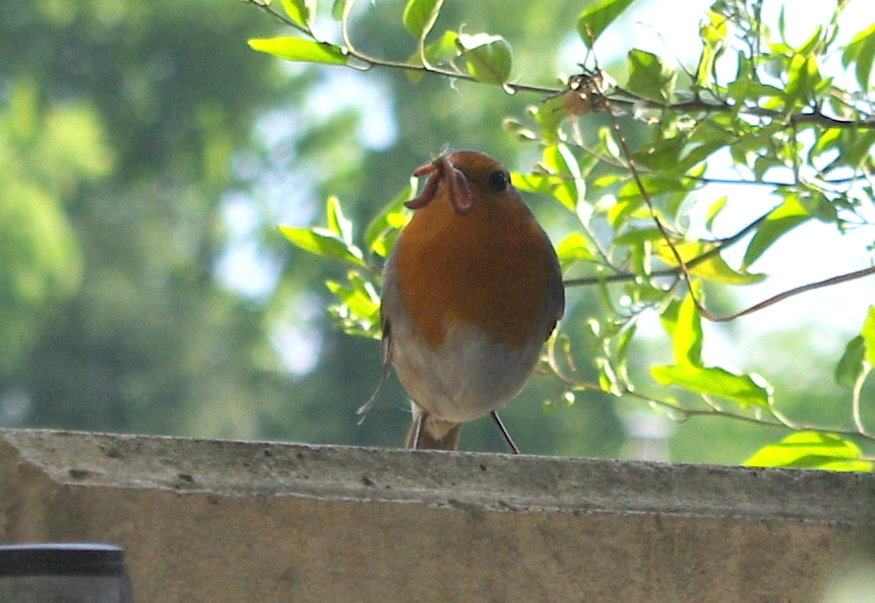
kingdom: Animalia
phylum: Chordata
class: Aves
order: Passeriformes
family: Muscicapidae
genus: Erithacus
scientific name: Erithacus rubecula
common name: European robin
